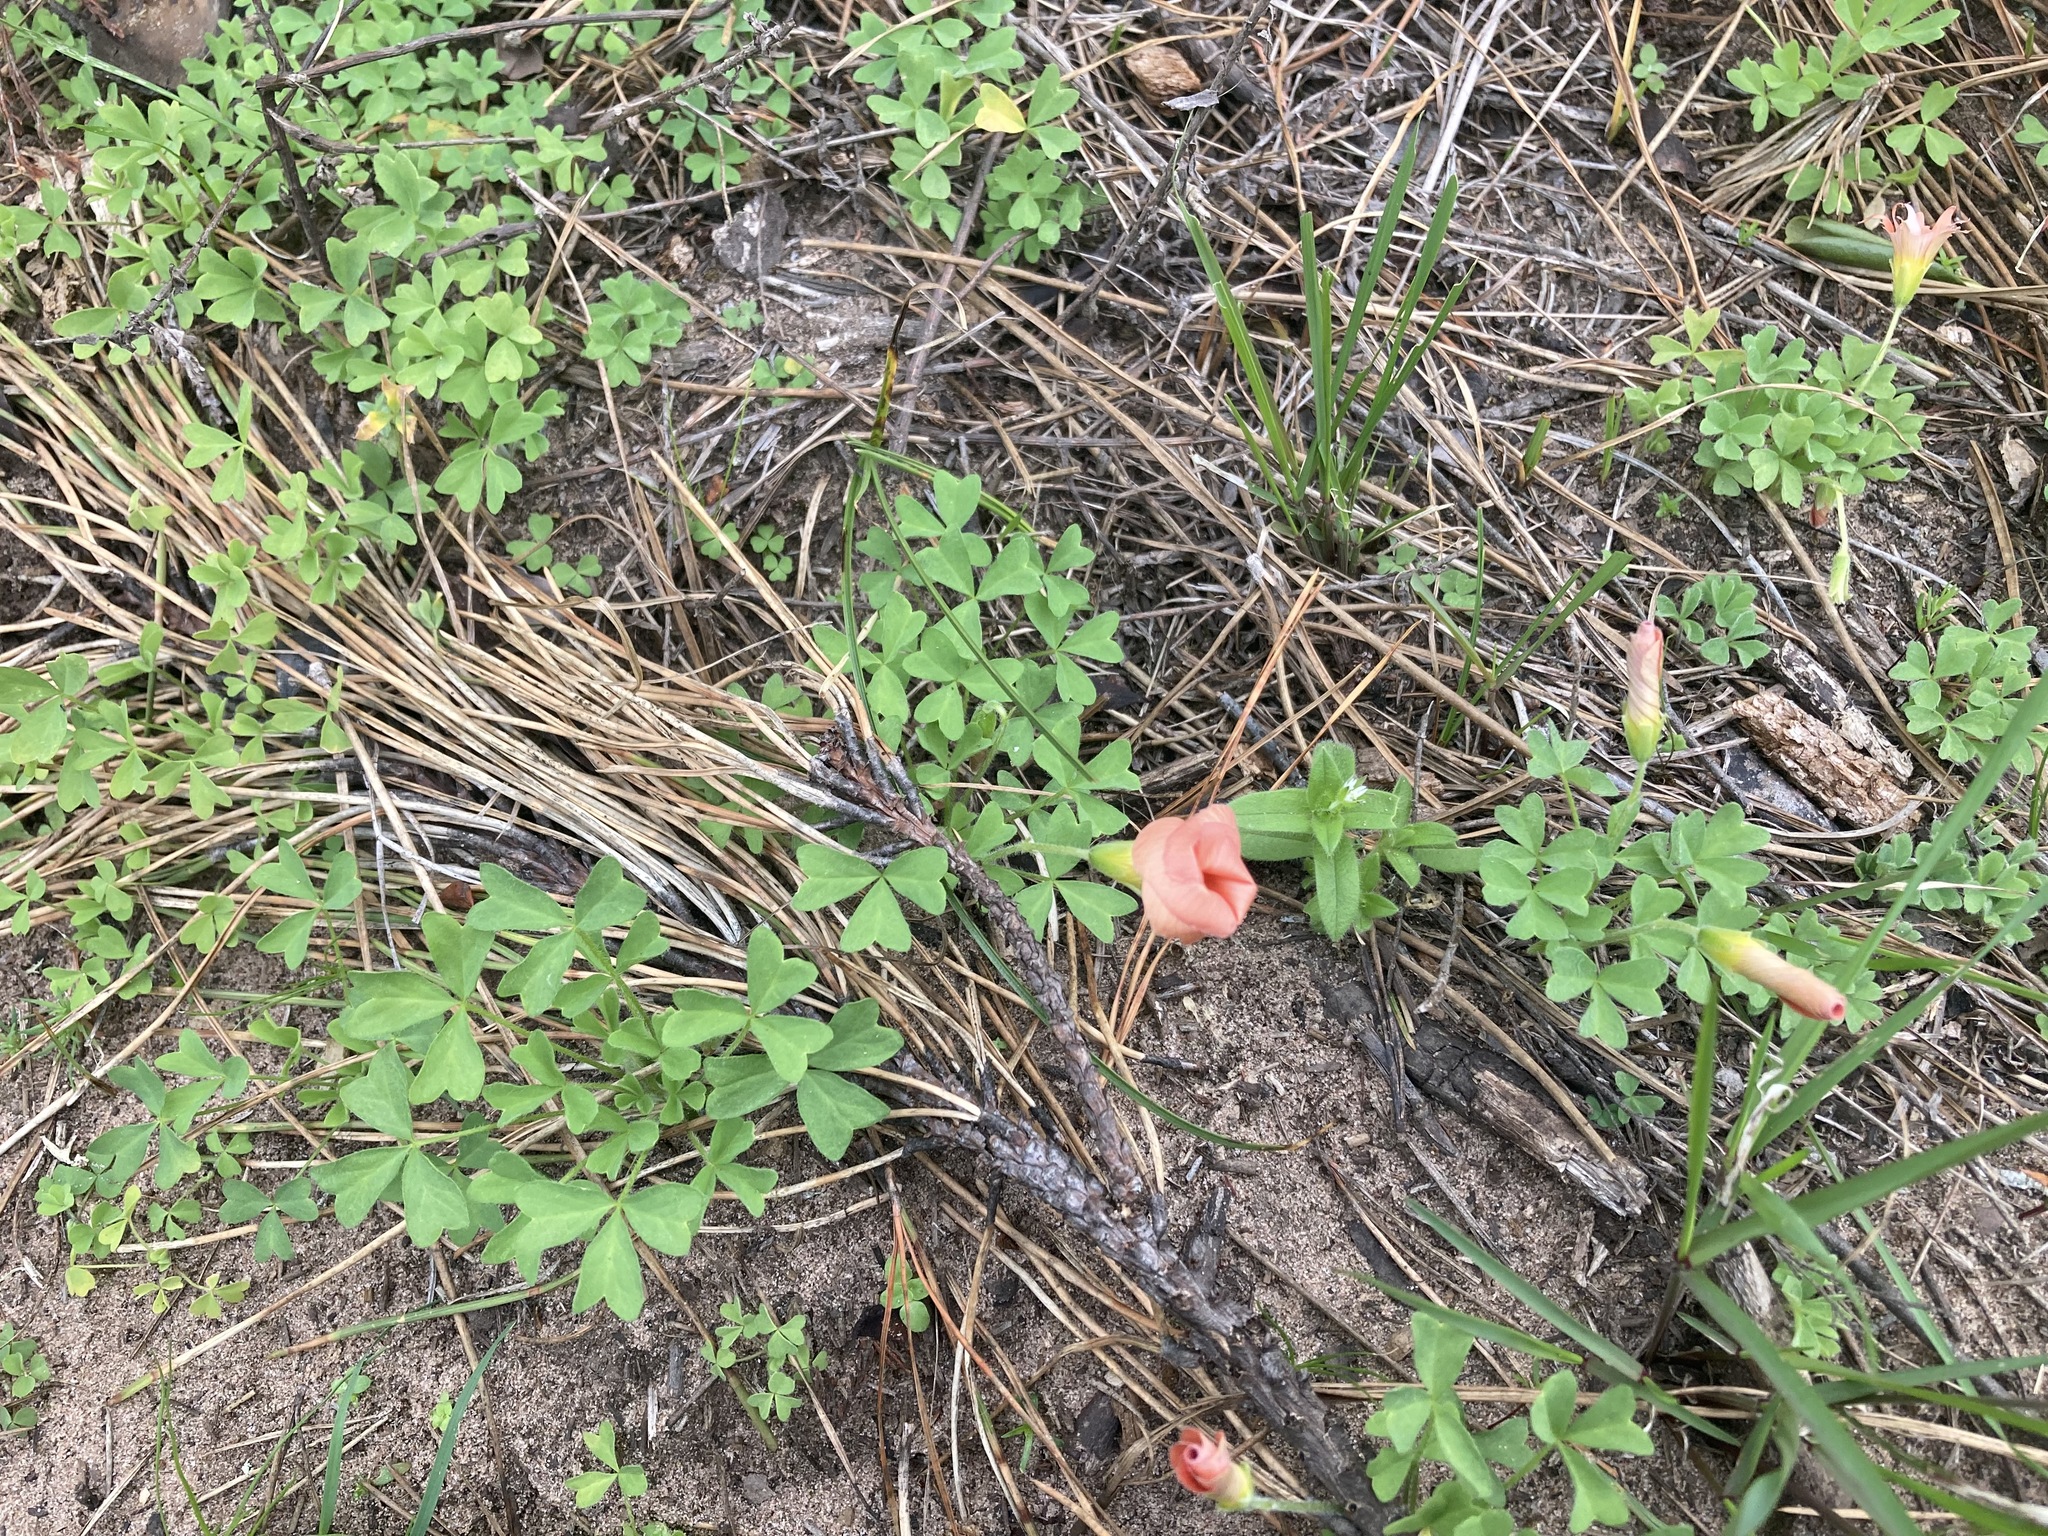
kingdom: Plantae
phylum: Tracheophyta
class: Magnoliopsida
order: Oxalidales
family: Oxalidaceae
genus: Oxalis
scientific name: Oxalis obtusa
